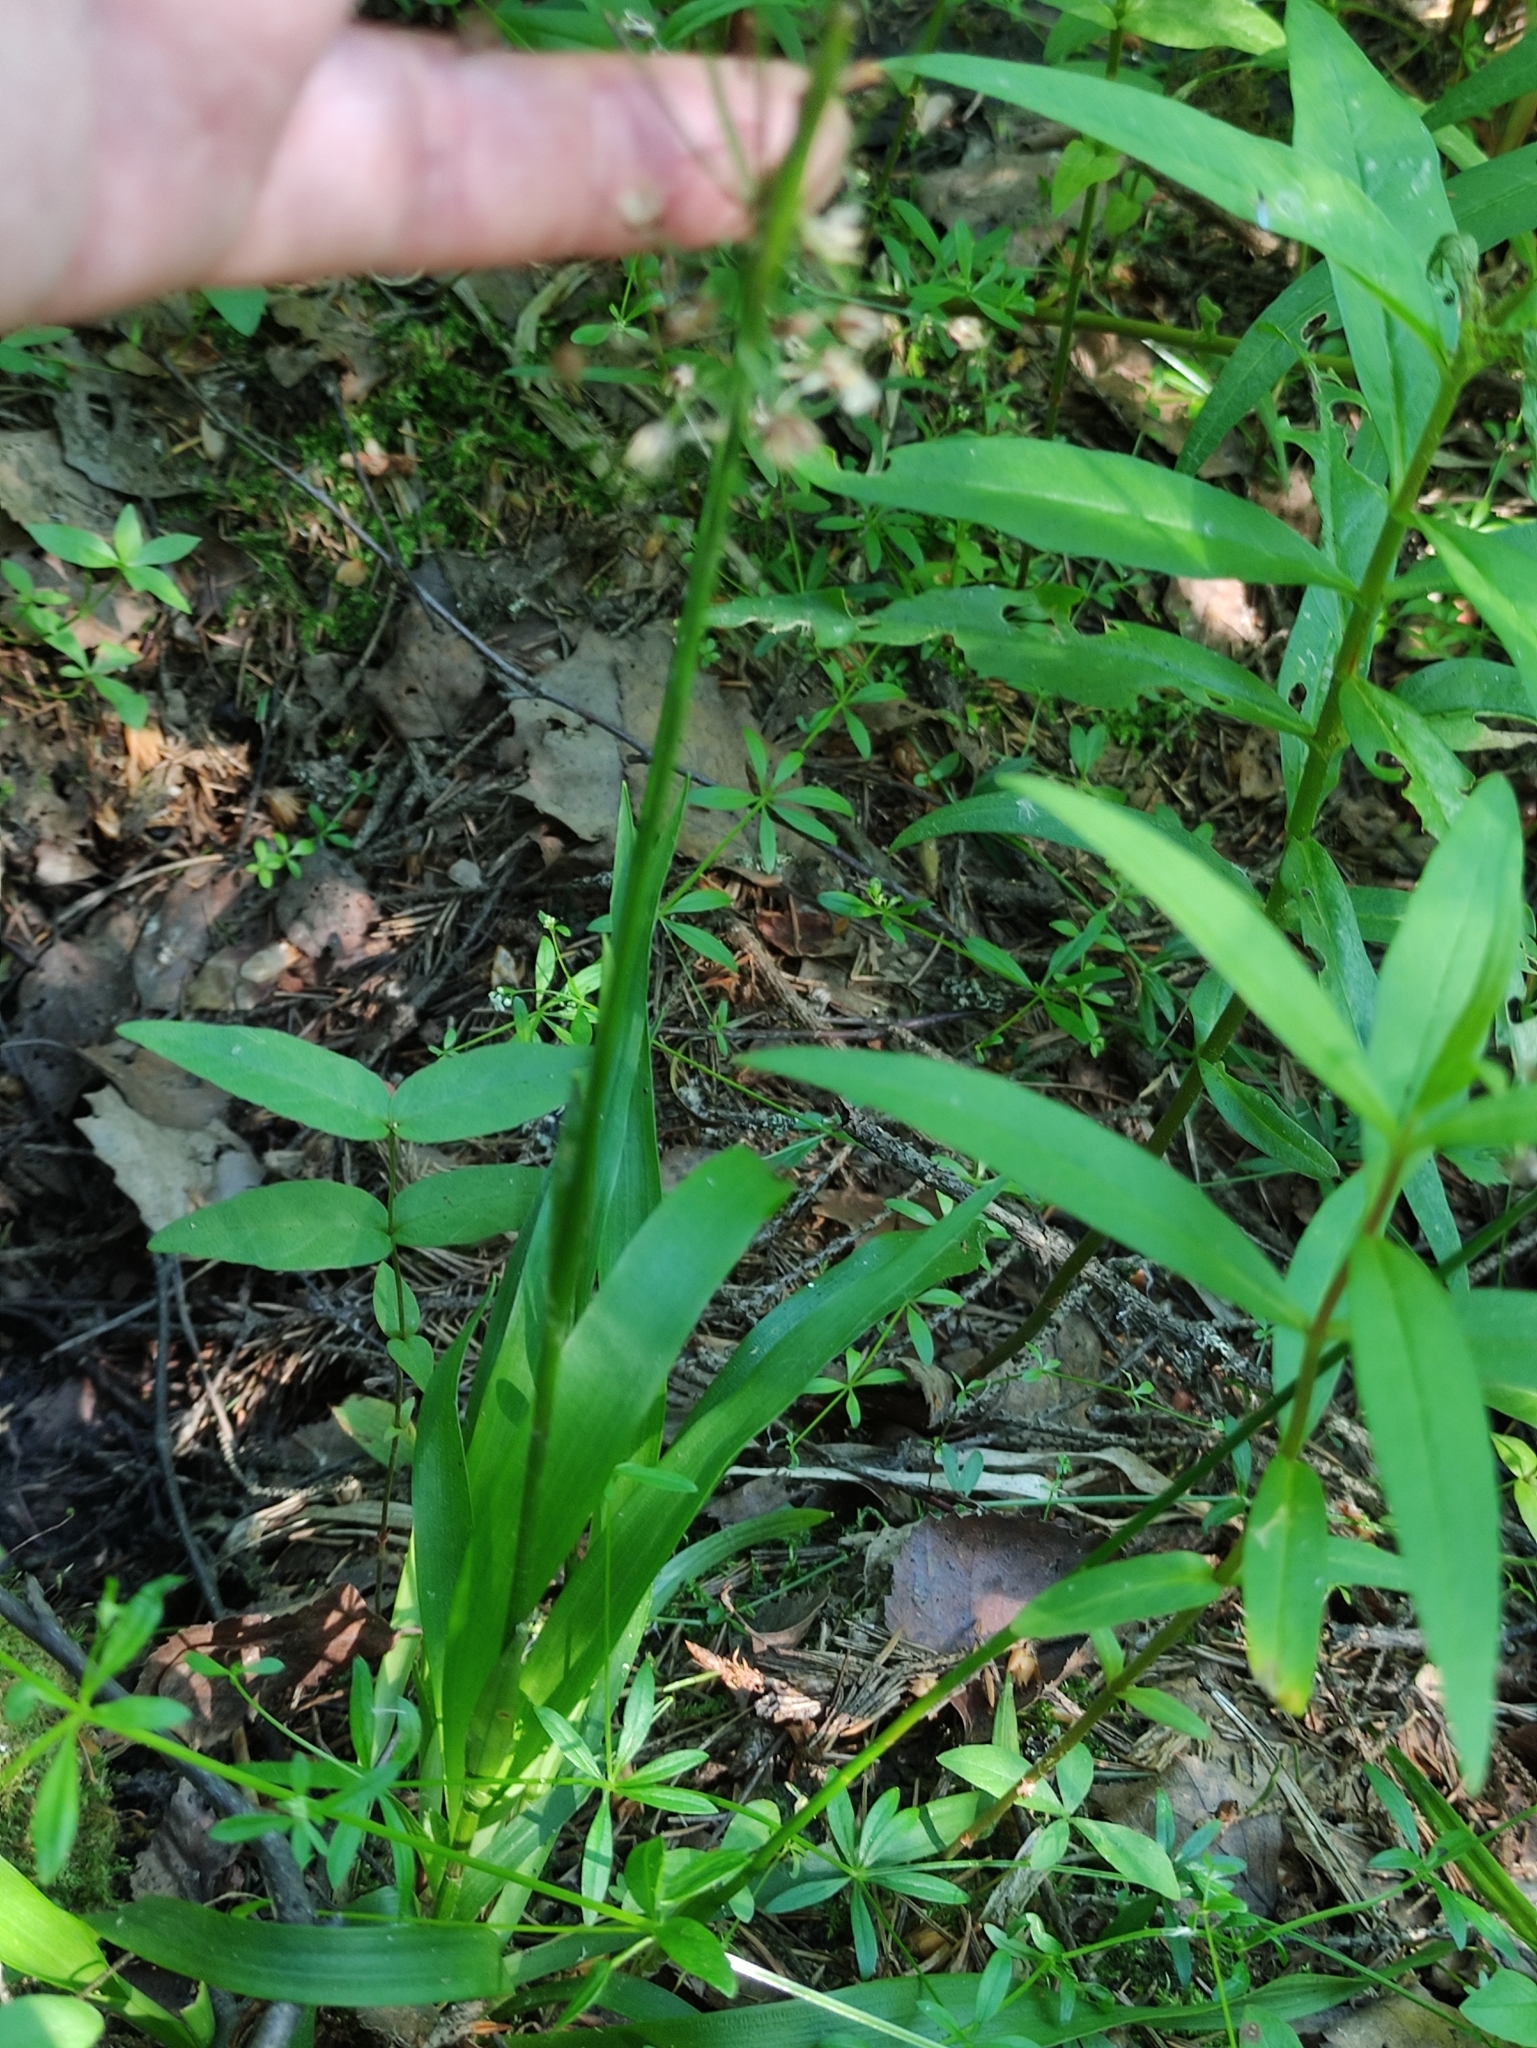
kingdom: Plantae
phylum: Tracheophyta
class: Liliopsida
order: Poales
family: Juncaceae
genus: Luzula
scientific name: Luzula pilosa
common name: Hairy wood-rush
